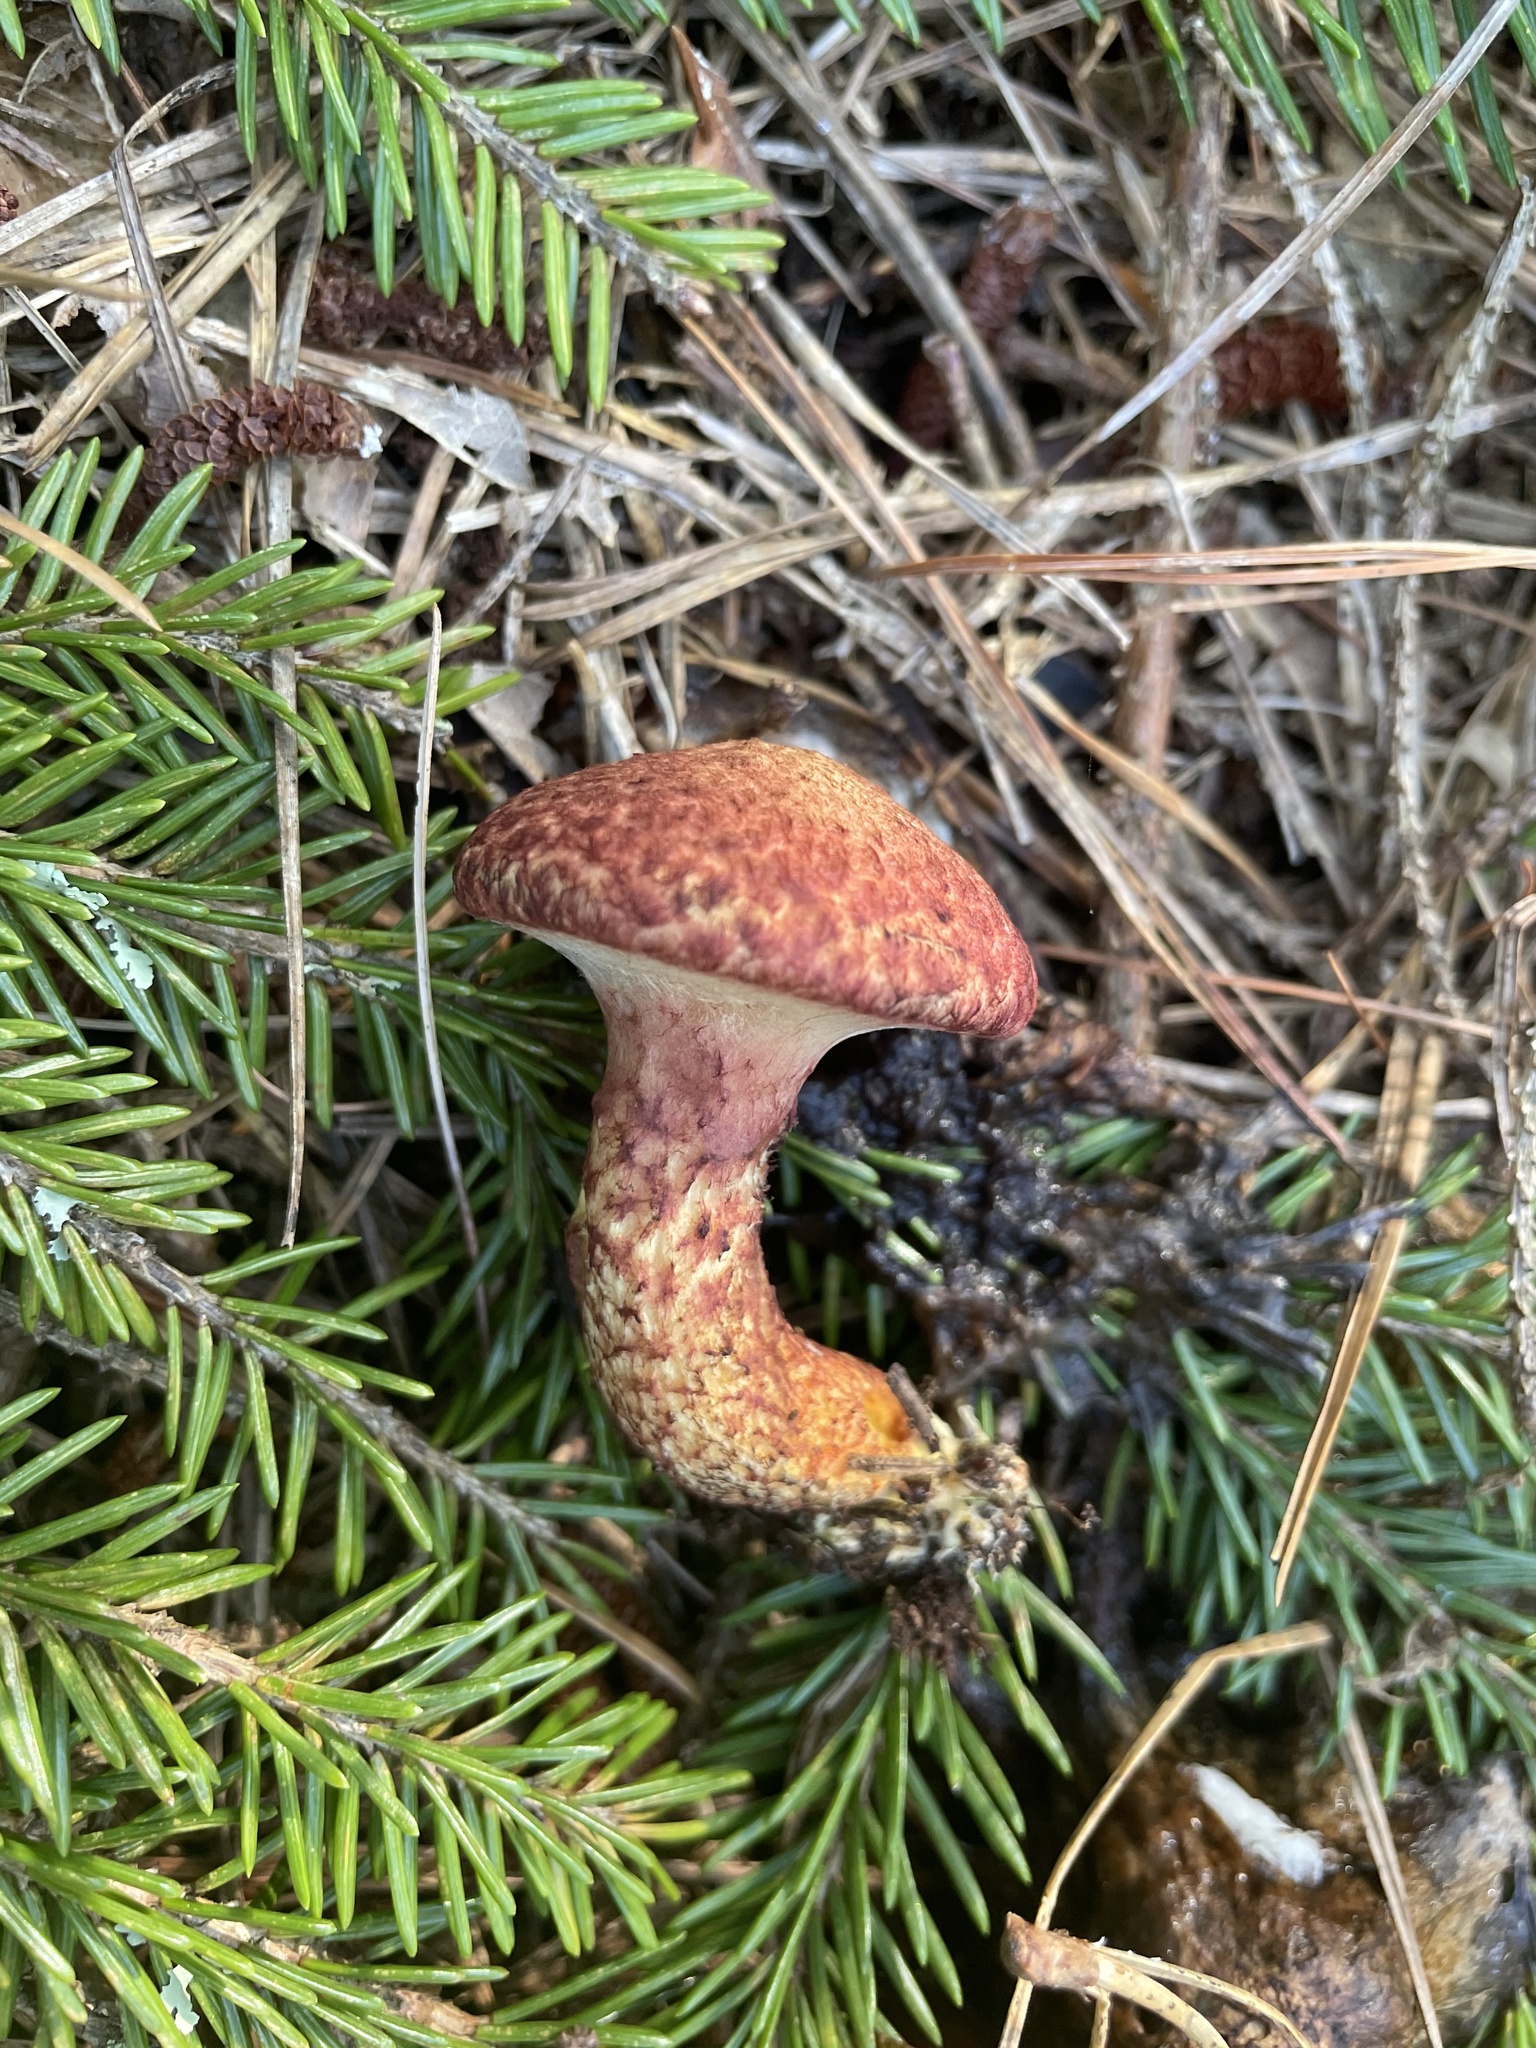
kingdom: Fungi
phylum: Basidiomycota
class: Agaricomycetes
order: Boletales
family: Suillaceae
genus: Suillus
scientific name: Suillus spraguei
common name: Painted suillus
